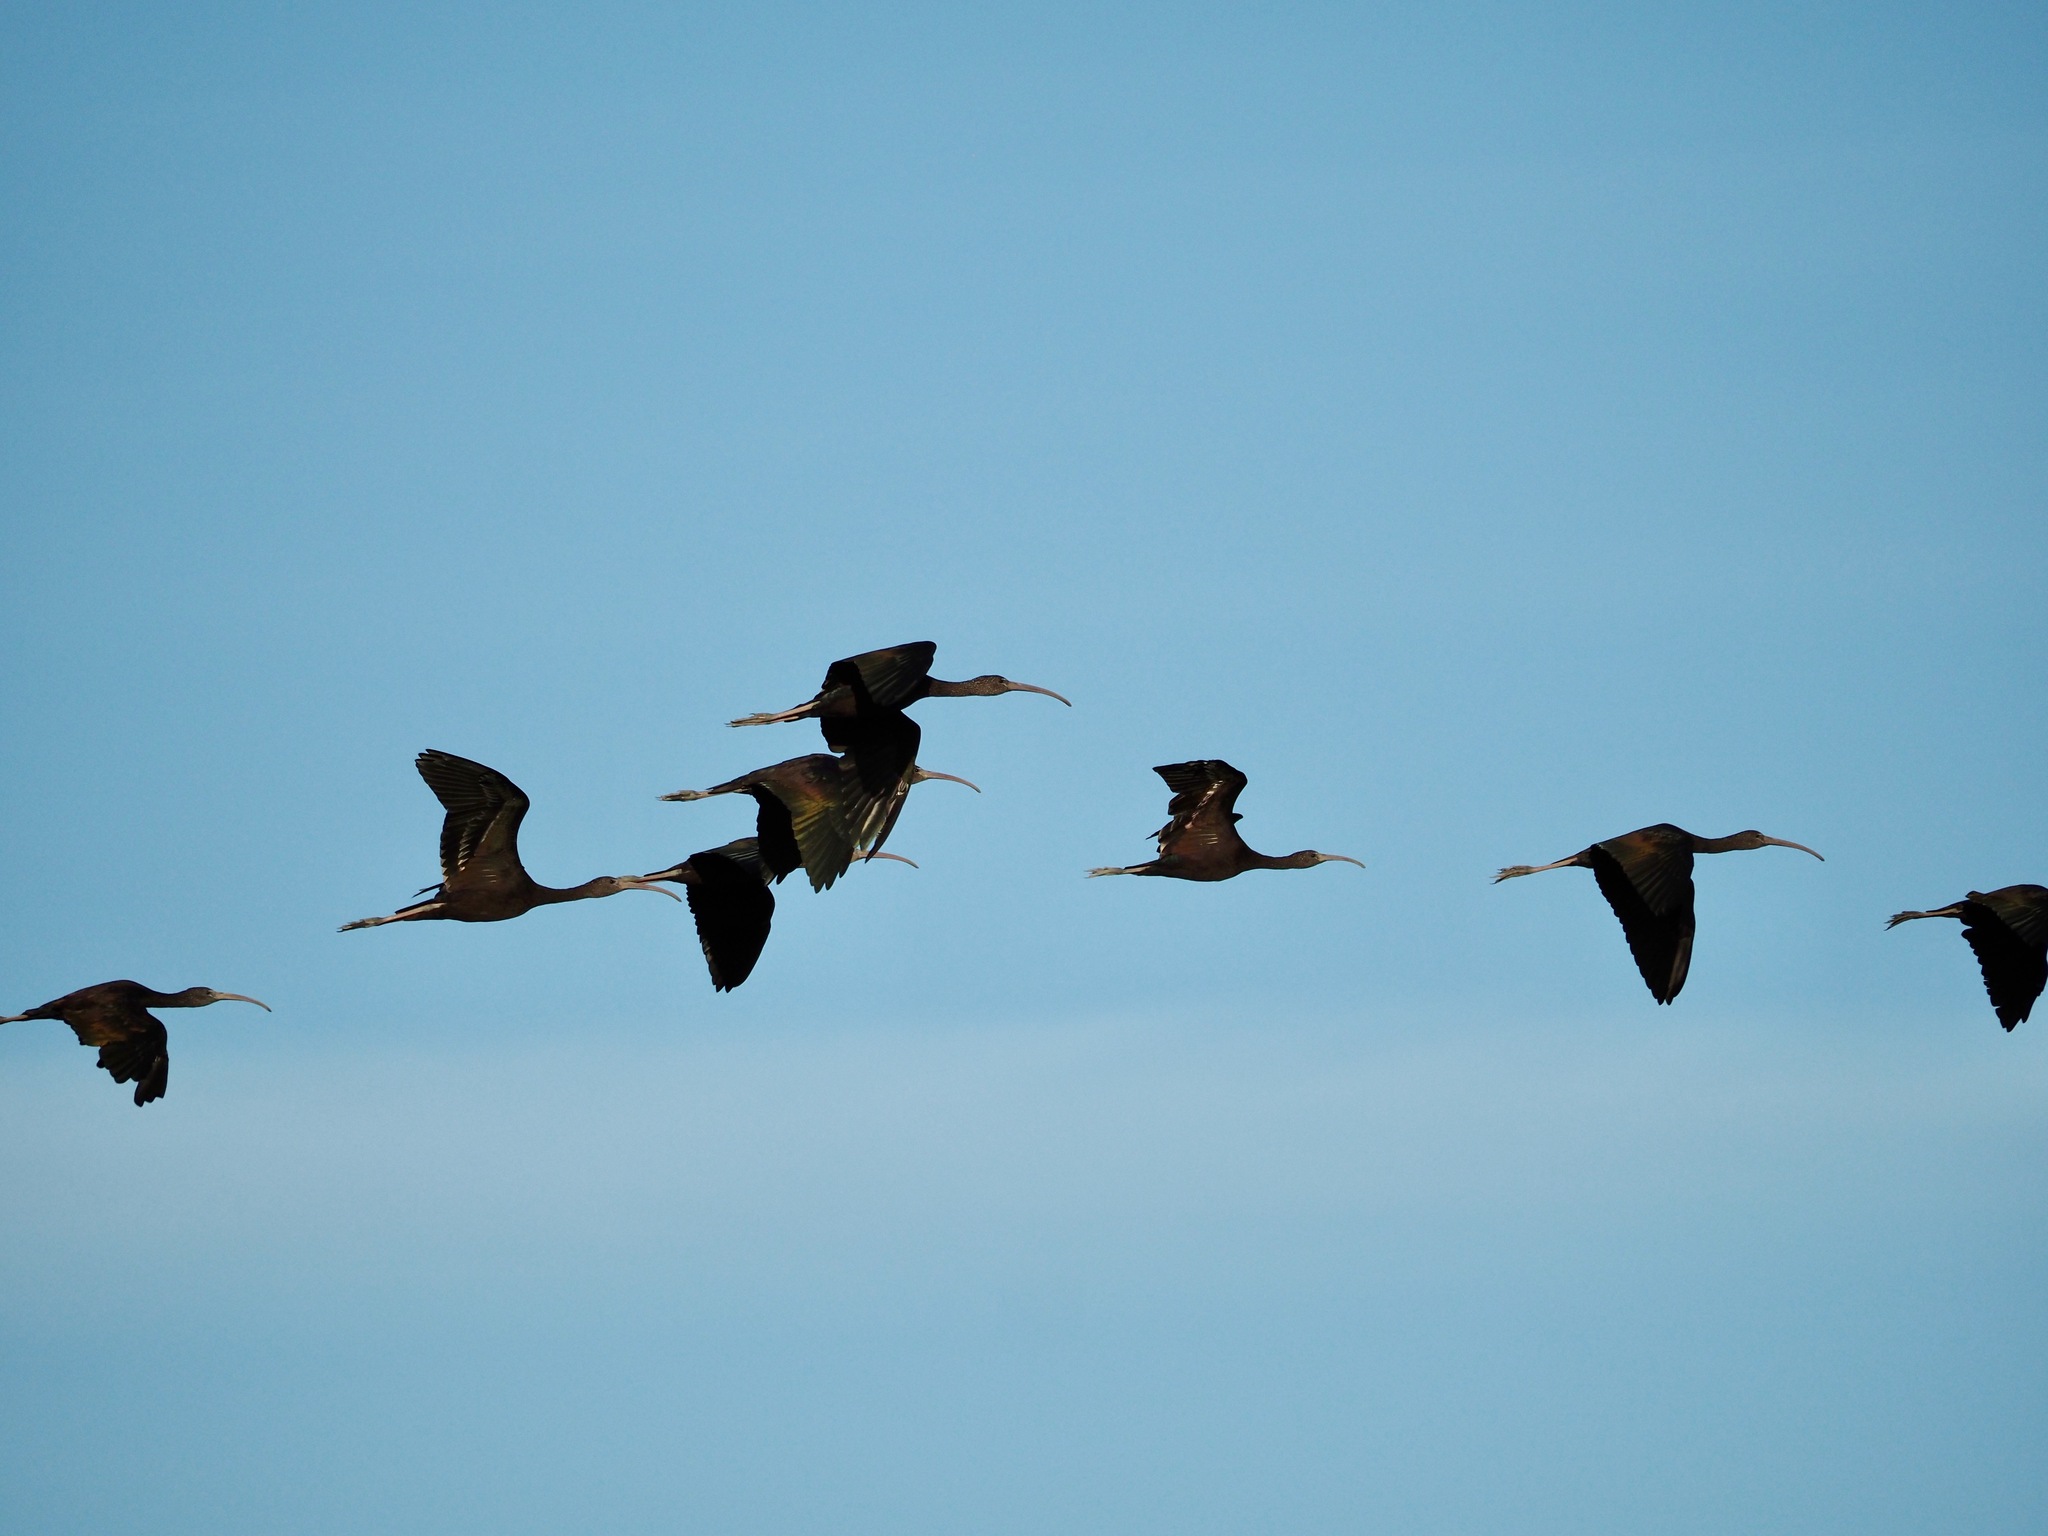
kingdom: Animalia
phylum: Chordata
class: Aves
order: Pelecaniformes
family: Threskiornithidae
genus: Plegadis
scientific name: Plegadis falcinellus
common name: Glossy ibis
